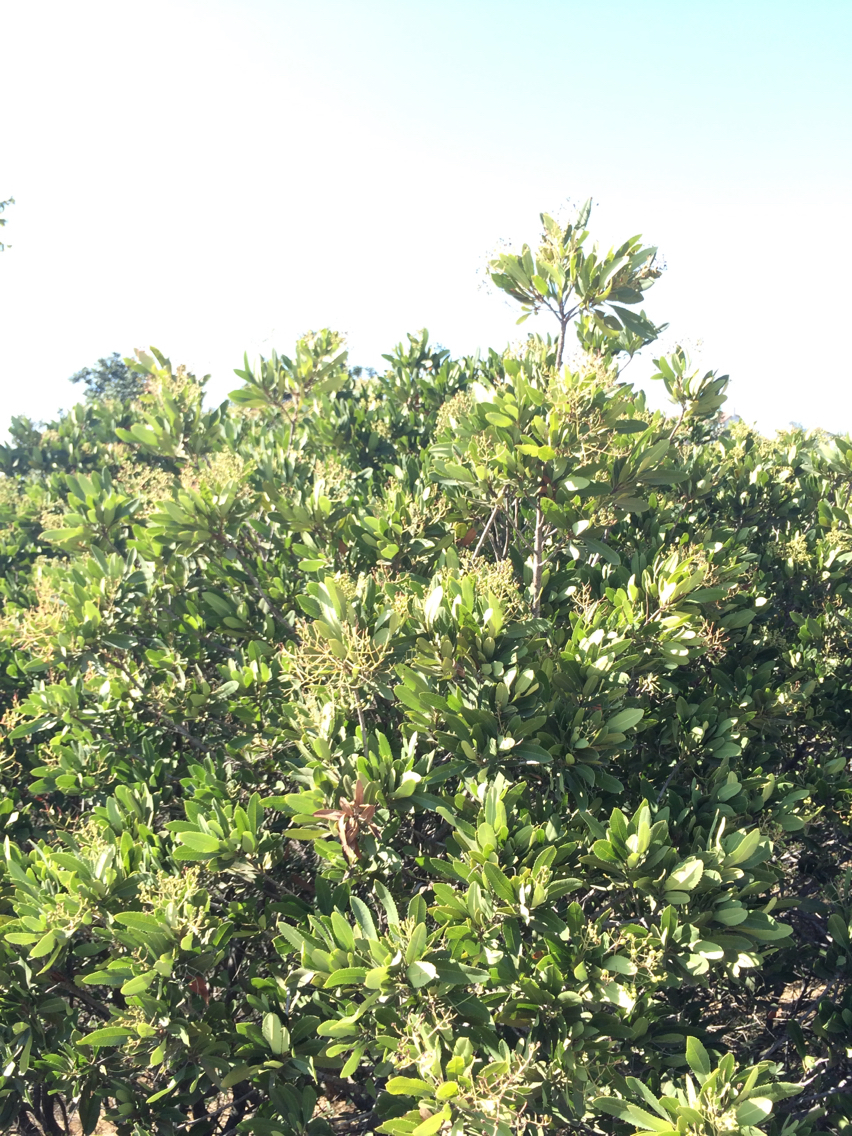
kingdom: Plantae
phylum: Tracheophyta
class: Magnoliopsida
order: Rosales
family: Rosaceae
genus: Heteromeles
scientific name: Heteromeles arbutifolia
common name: California-holly
